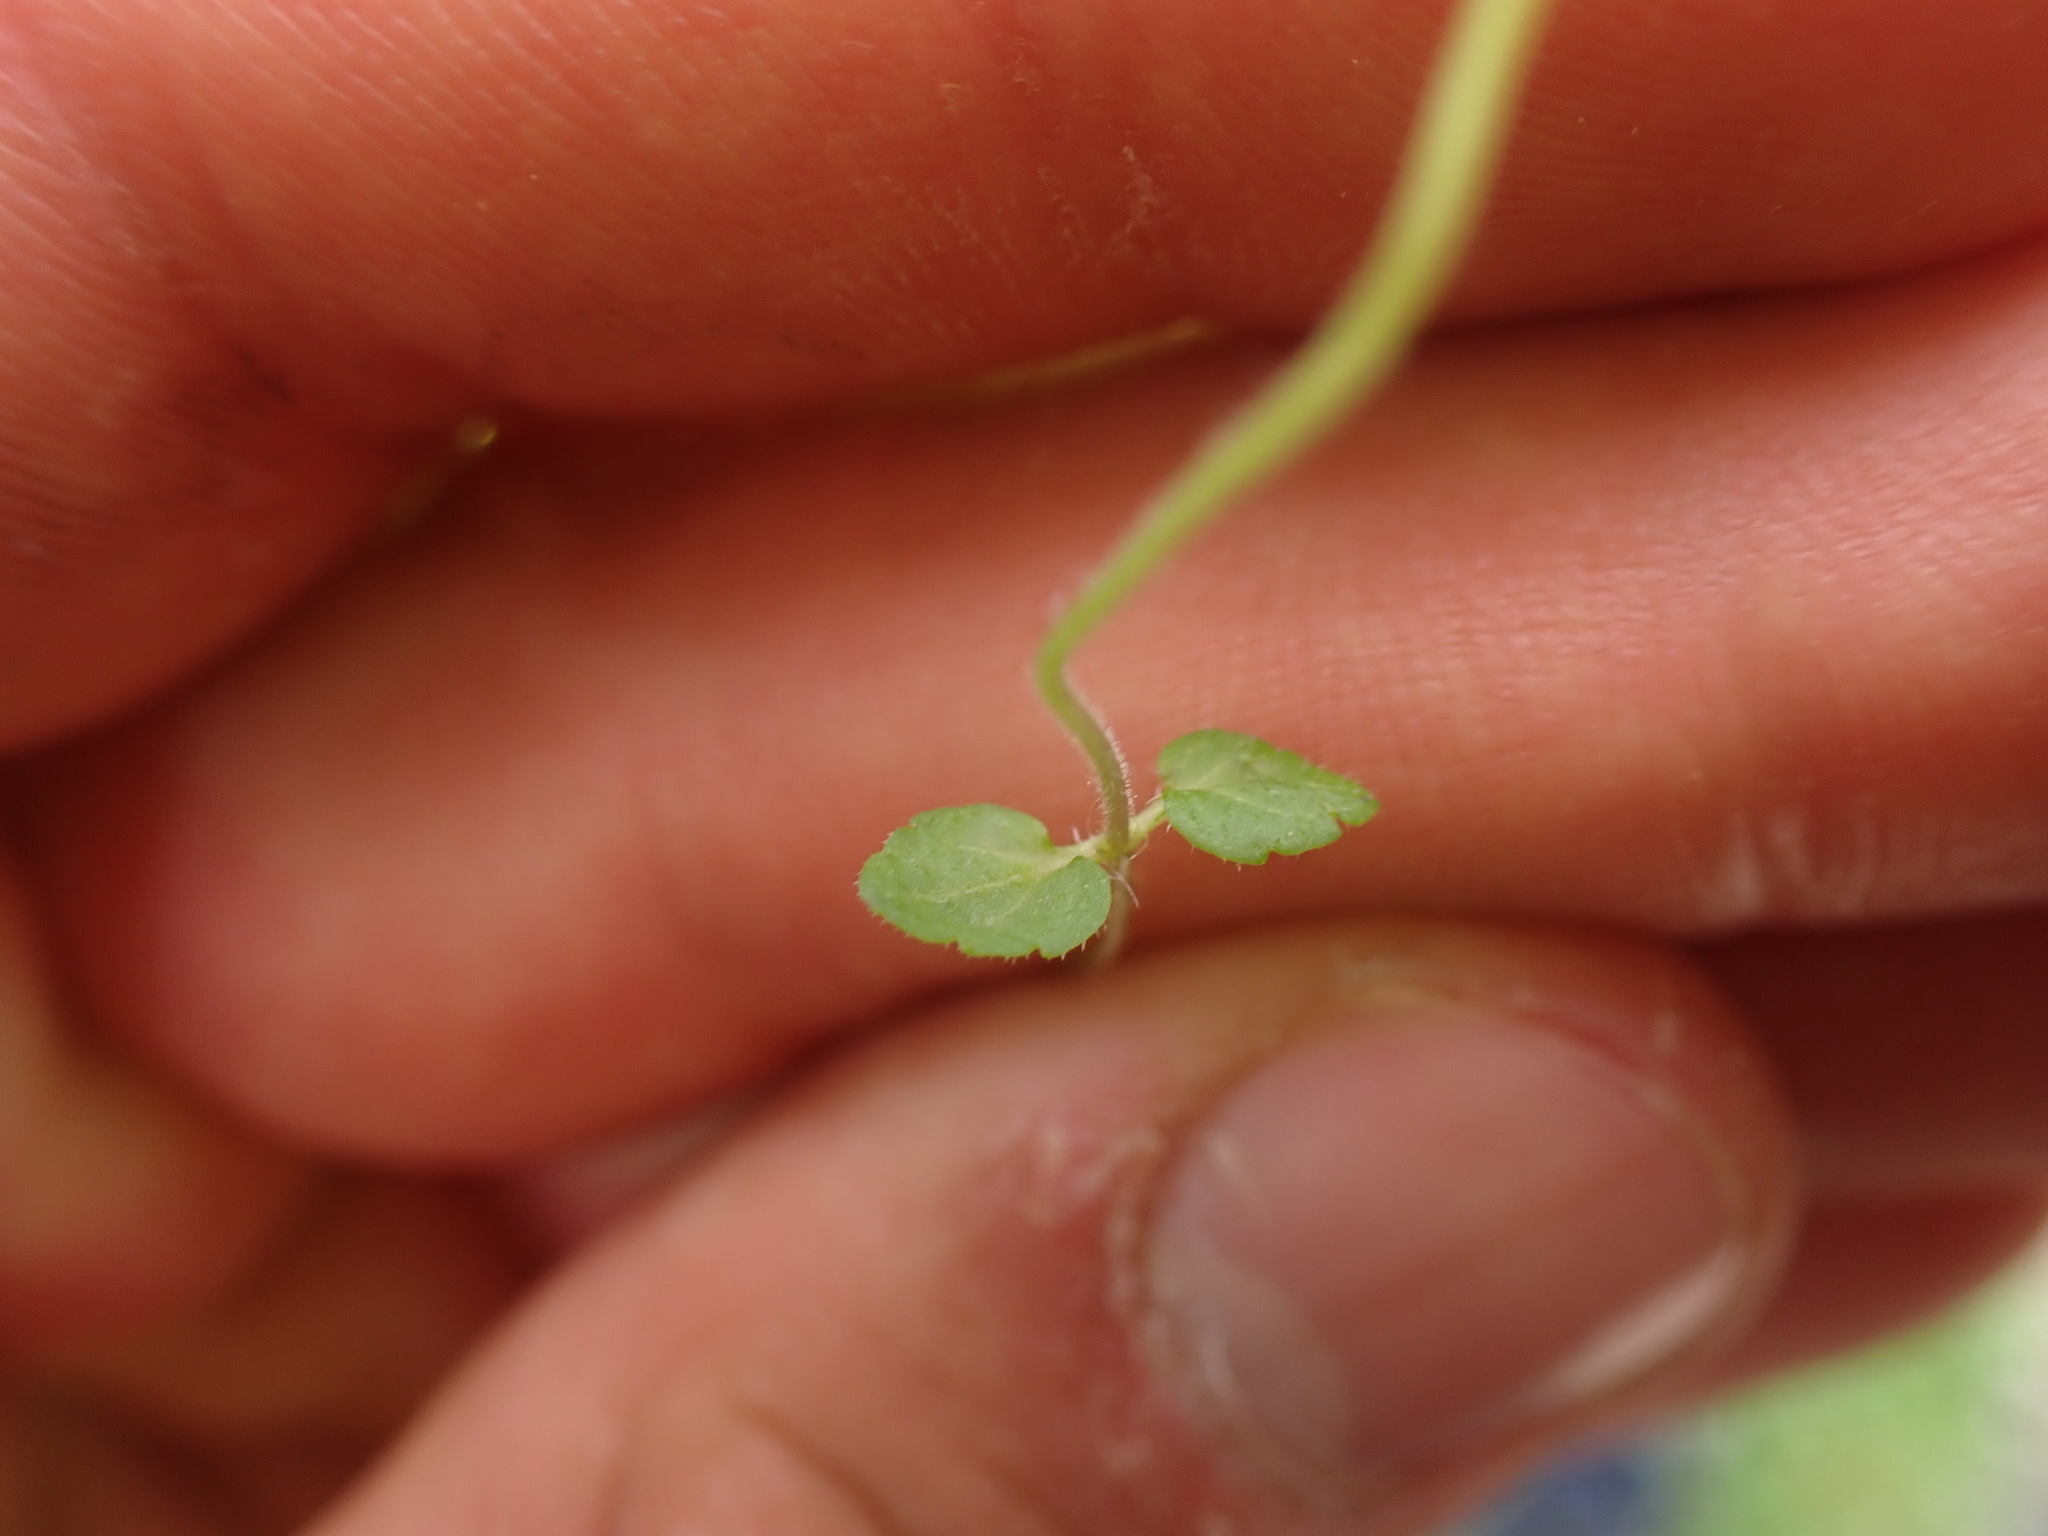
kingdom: Plantae
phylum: Tracheophyta
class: Magnoliopsida
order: Lamiales
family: Plantaginaceae
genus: Veronica
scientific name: Veronica arvensis
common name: Corn speedwell
